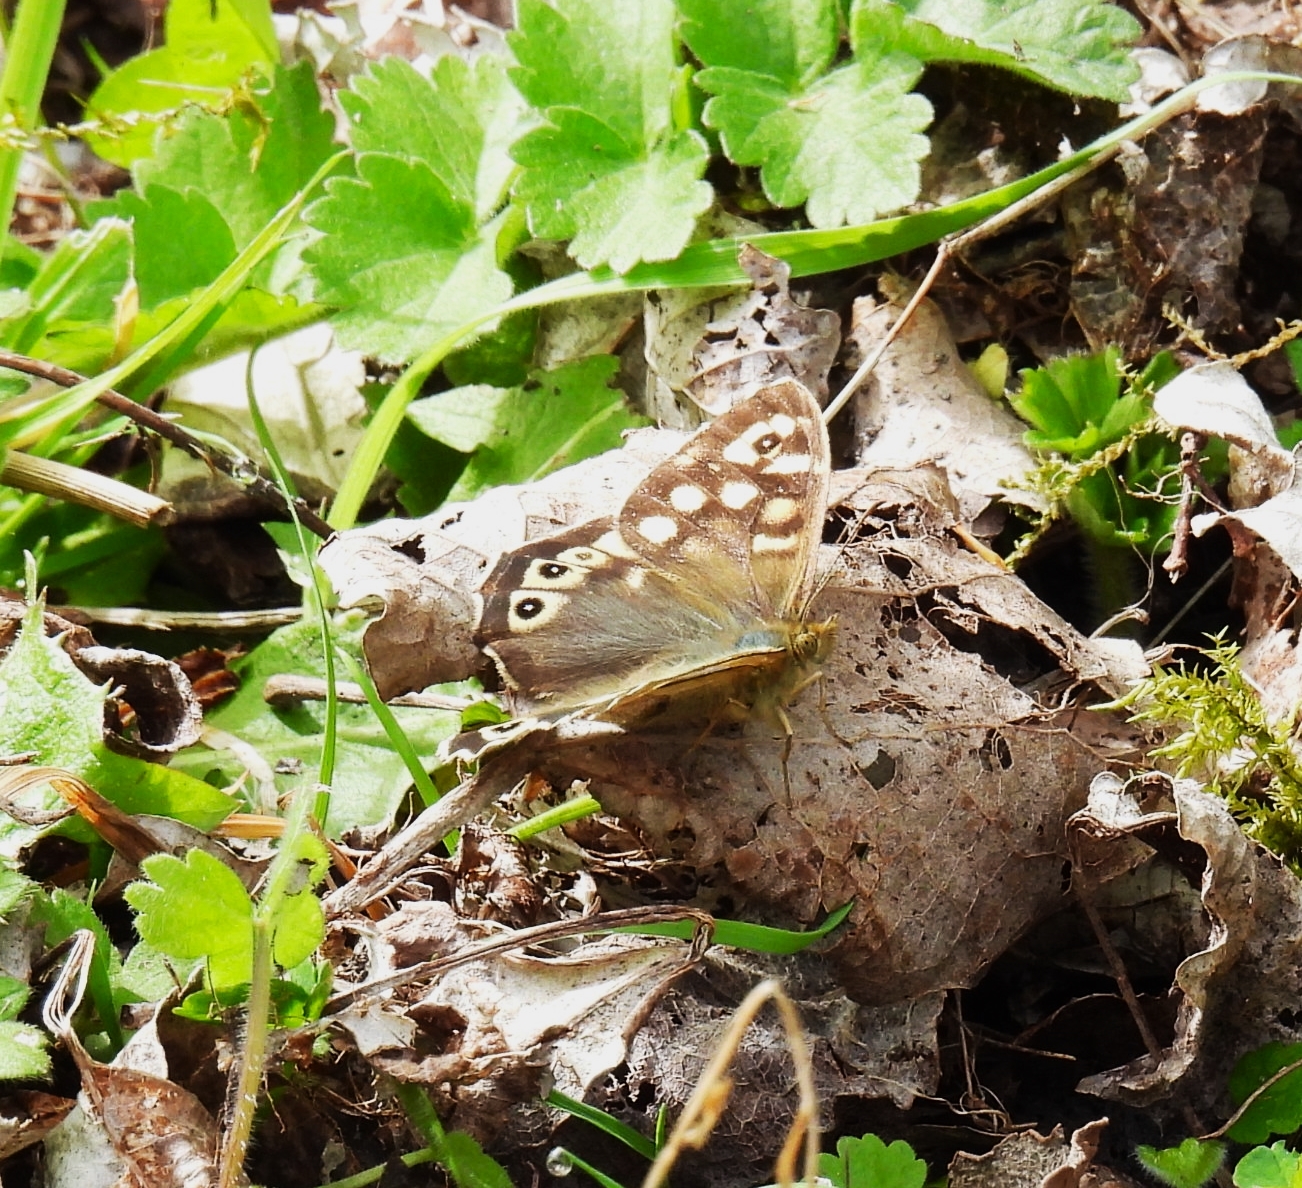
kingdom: Animalia
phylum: Arthropoda
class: Insecta
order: Lepidoptera
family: Nymphalidae
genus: Pararge
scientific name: Pararge aegeria
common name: Speckled wood
